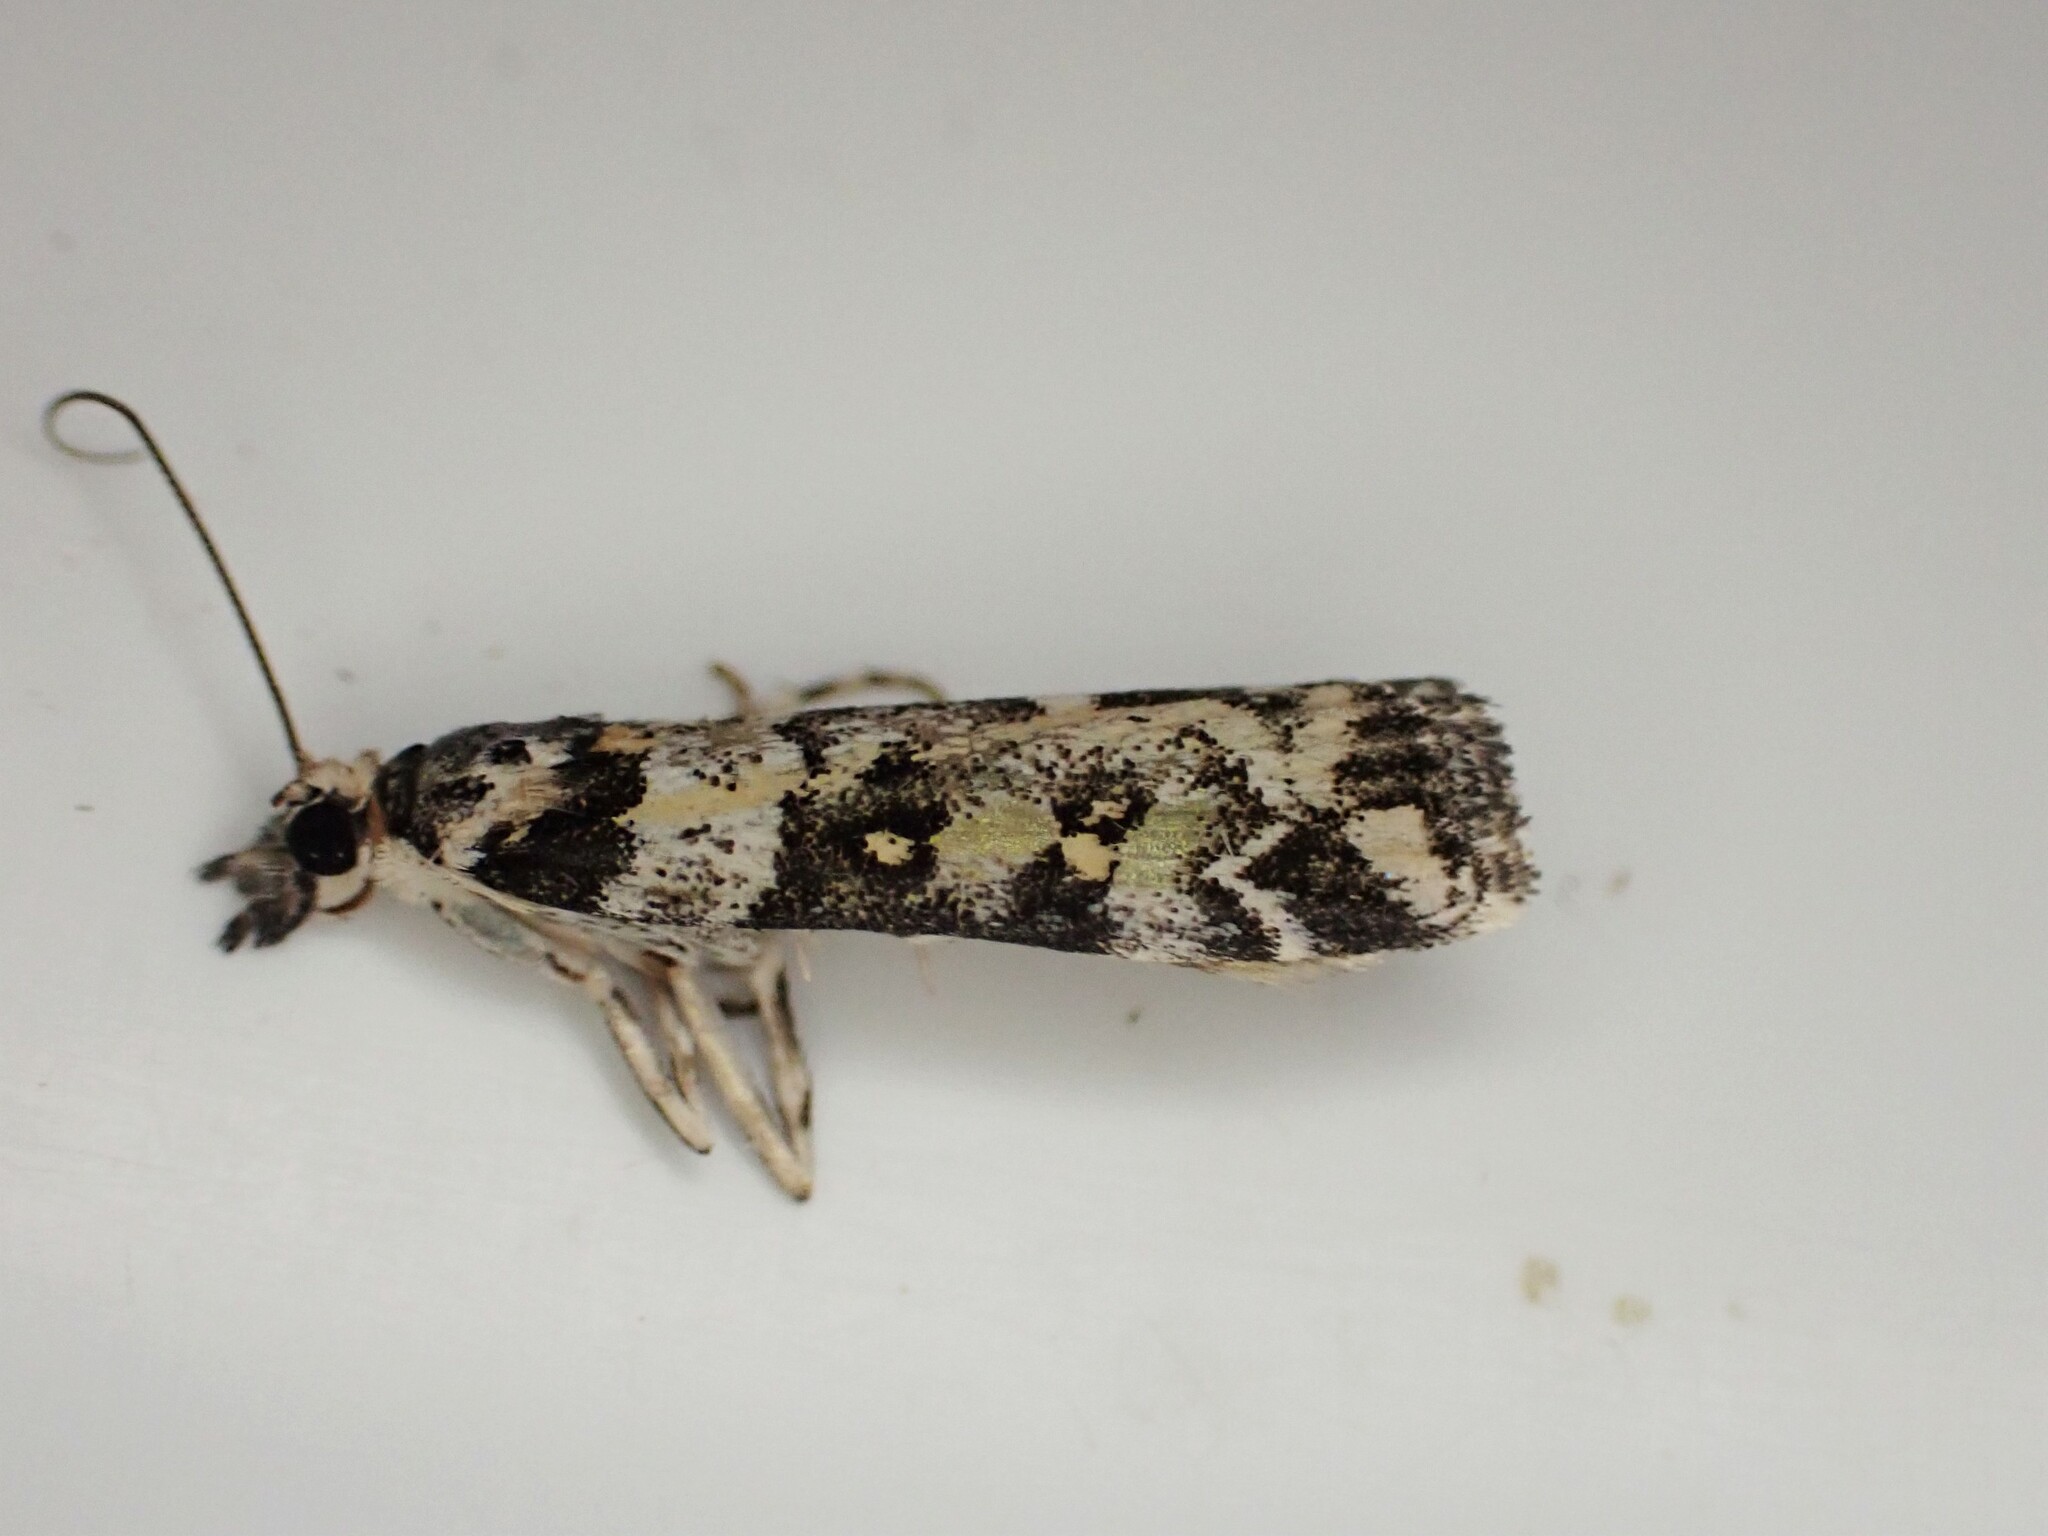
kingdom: Animalia
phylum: Arthropoda
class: Insecta
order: Lepidoptera
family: Crambidae
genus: Eudonia
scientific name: Eudonia diphtheralis
